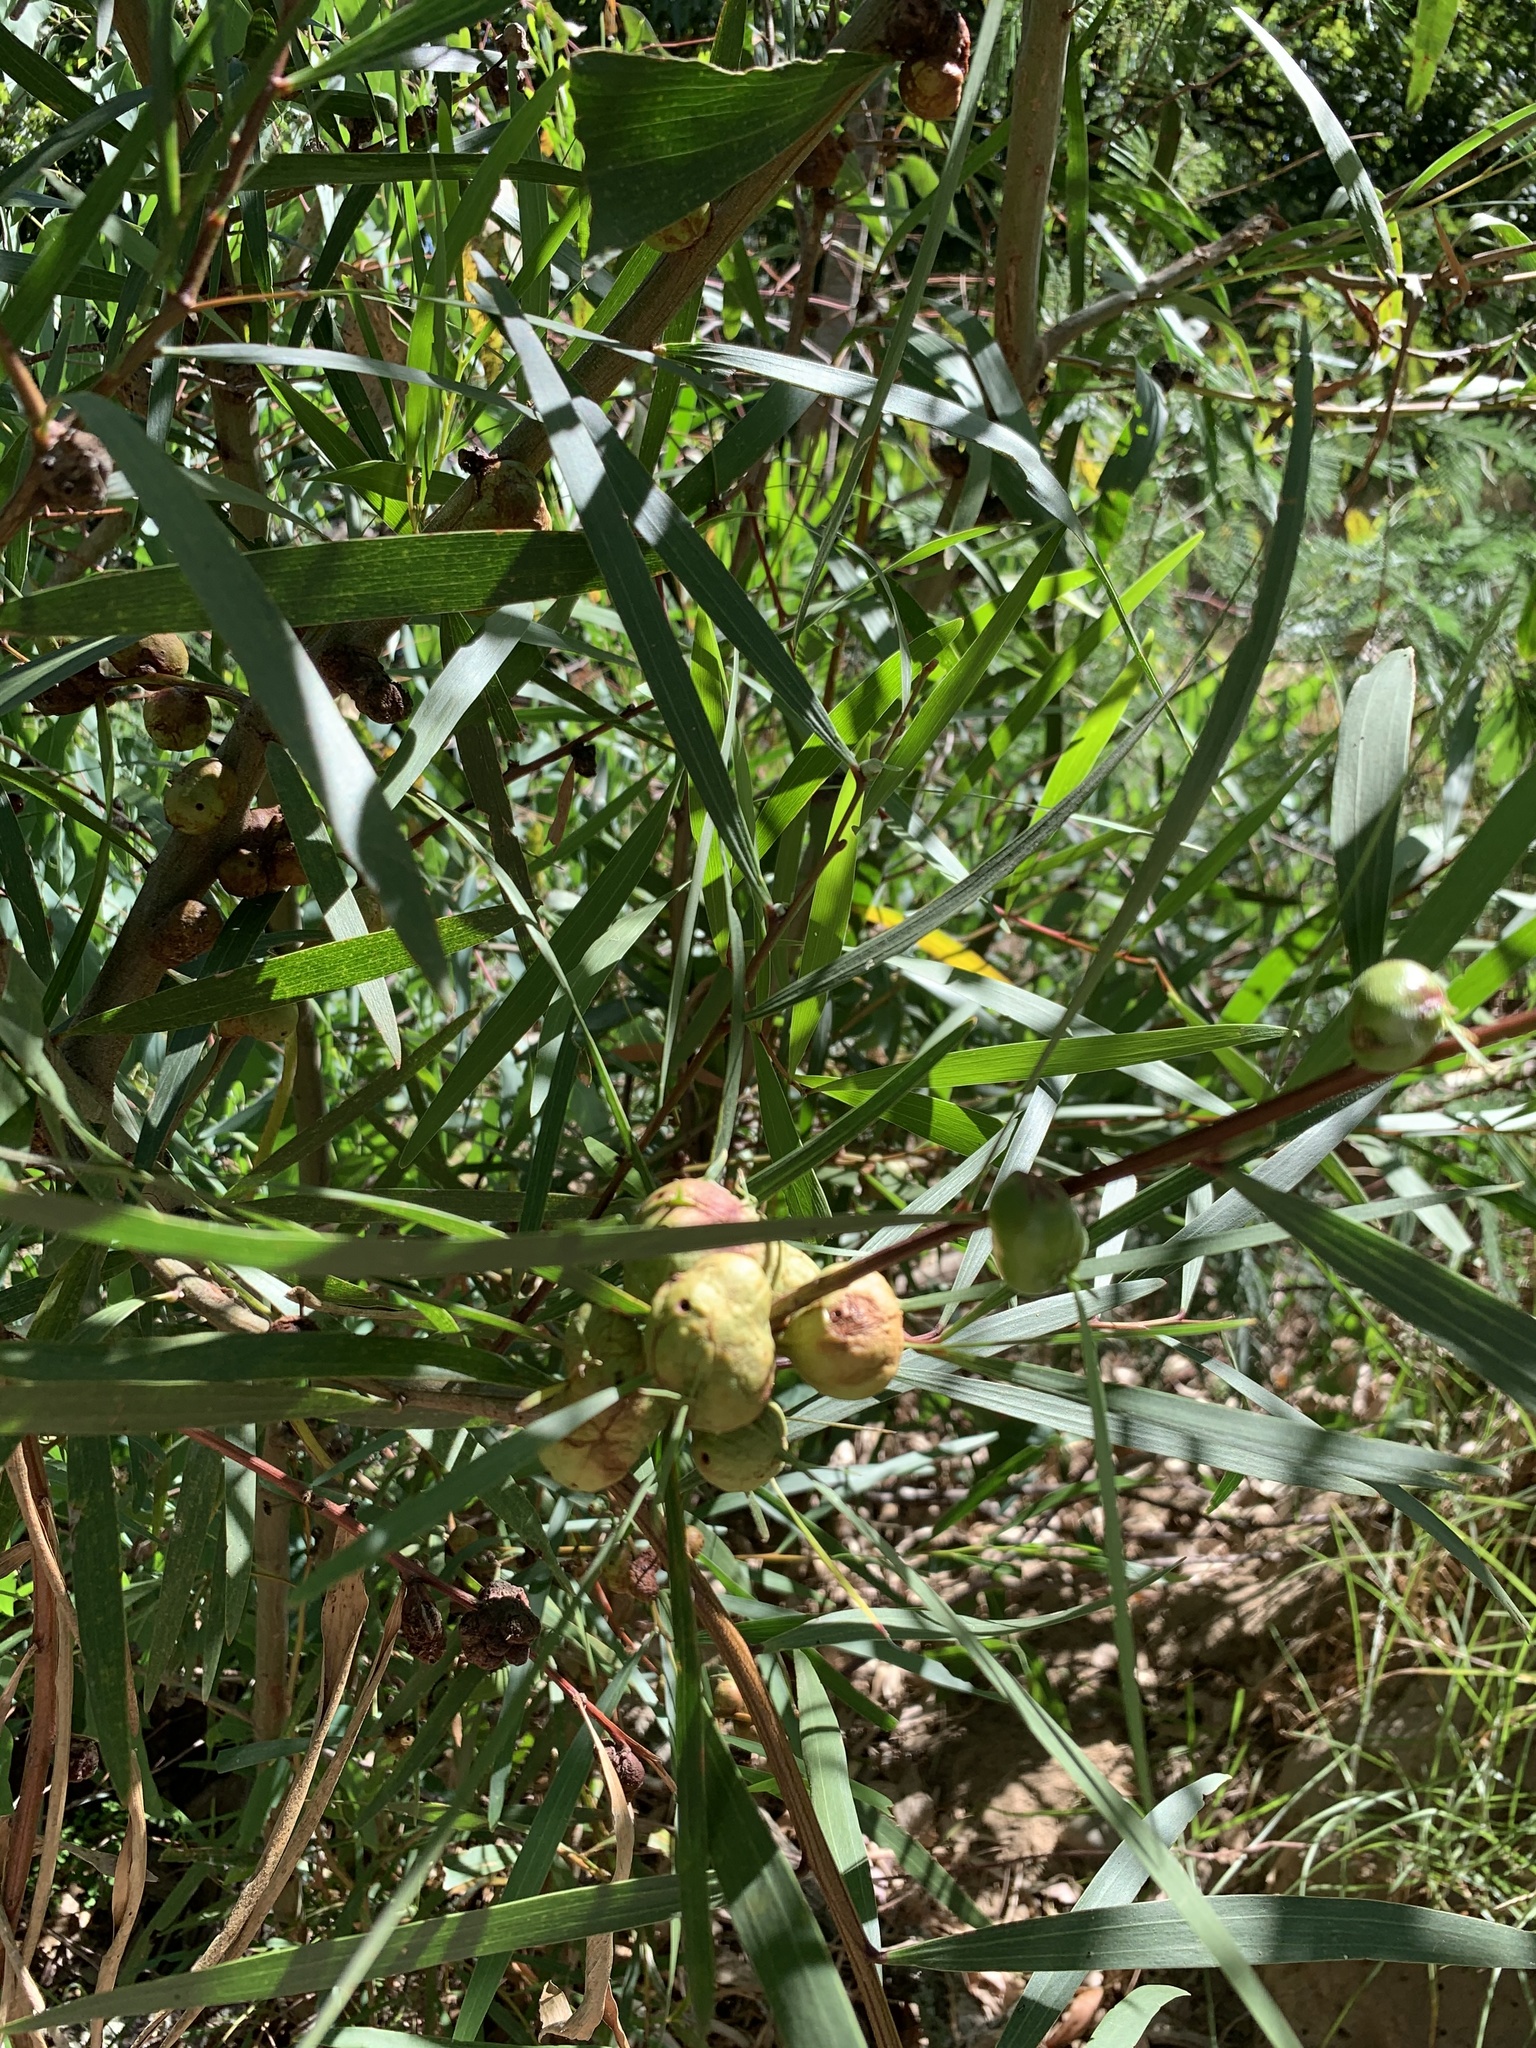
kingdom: Plantae
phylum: Tracheophyta
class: Magnoliopsida
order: Fabales
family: Fabaceae
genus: Acacia
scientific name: Acacia longifolia
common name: Sydney golden wattle
